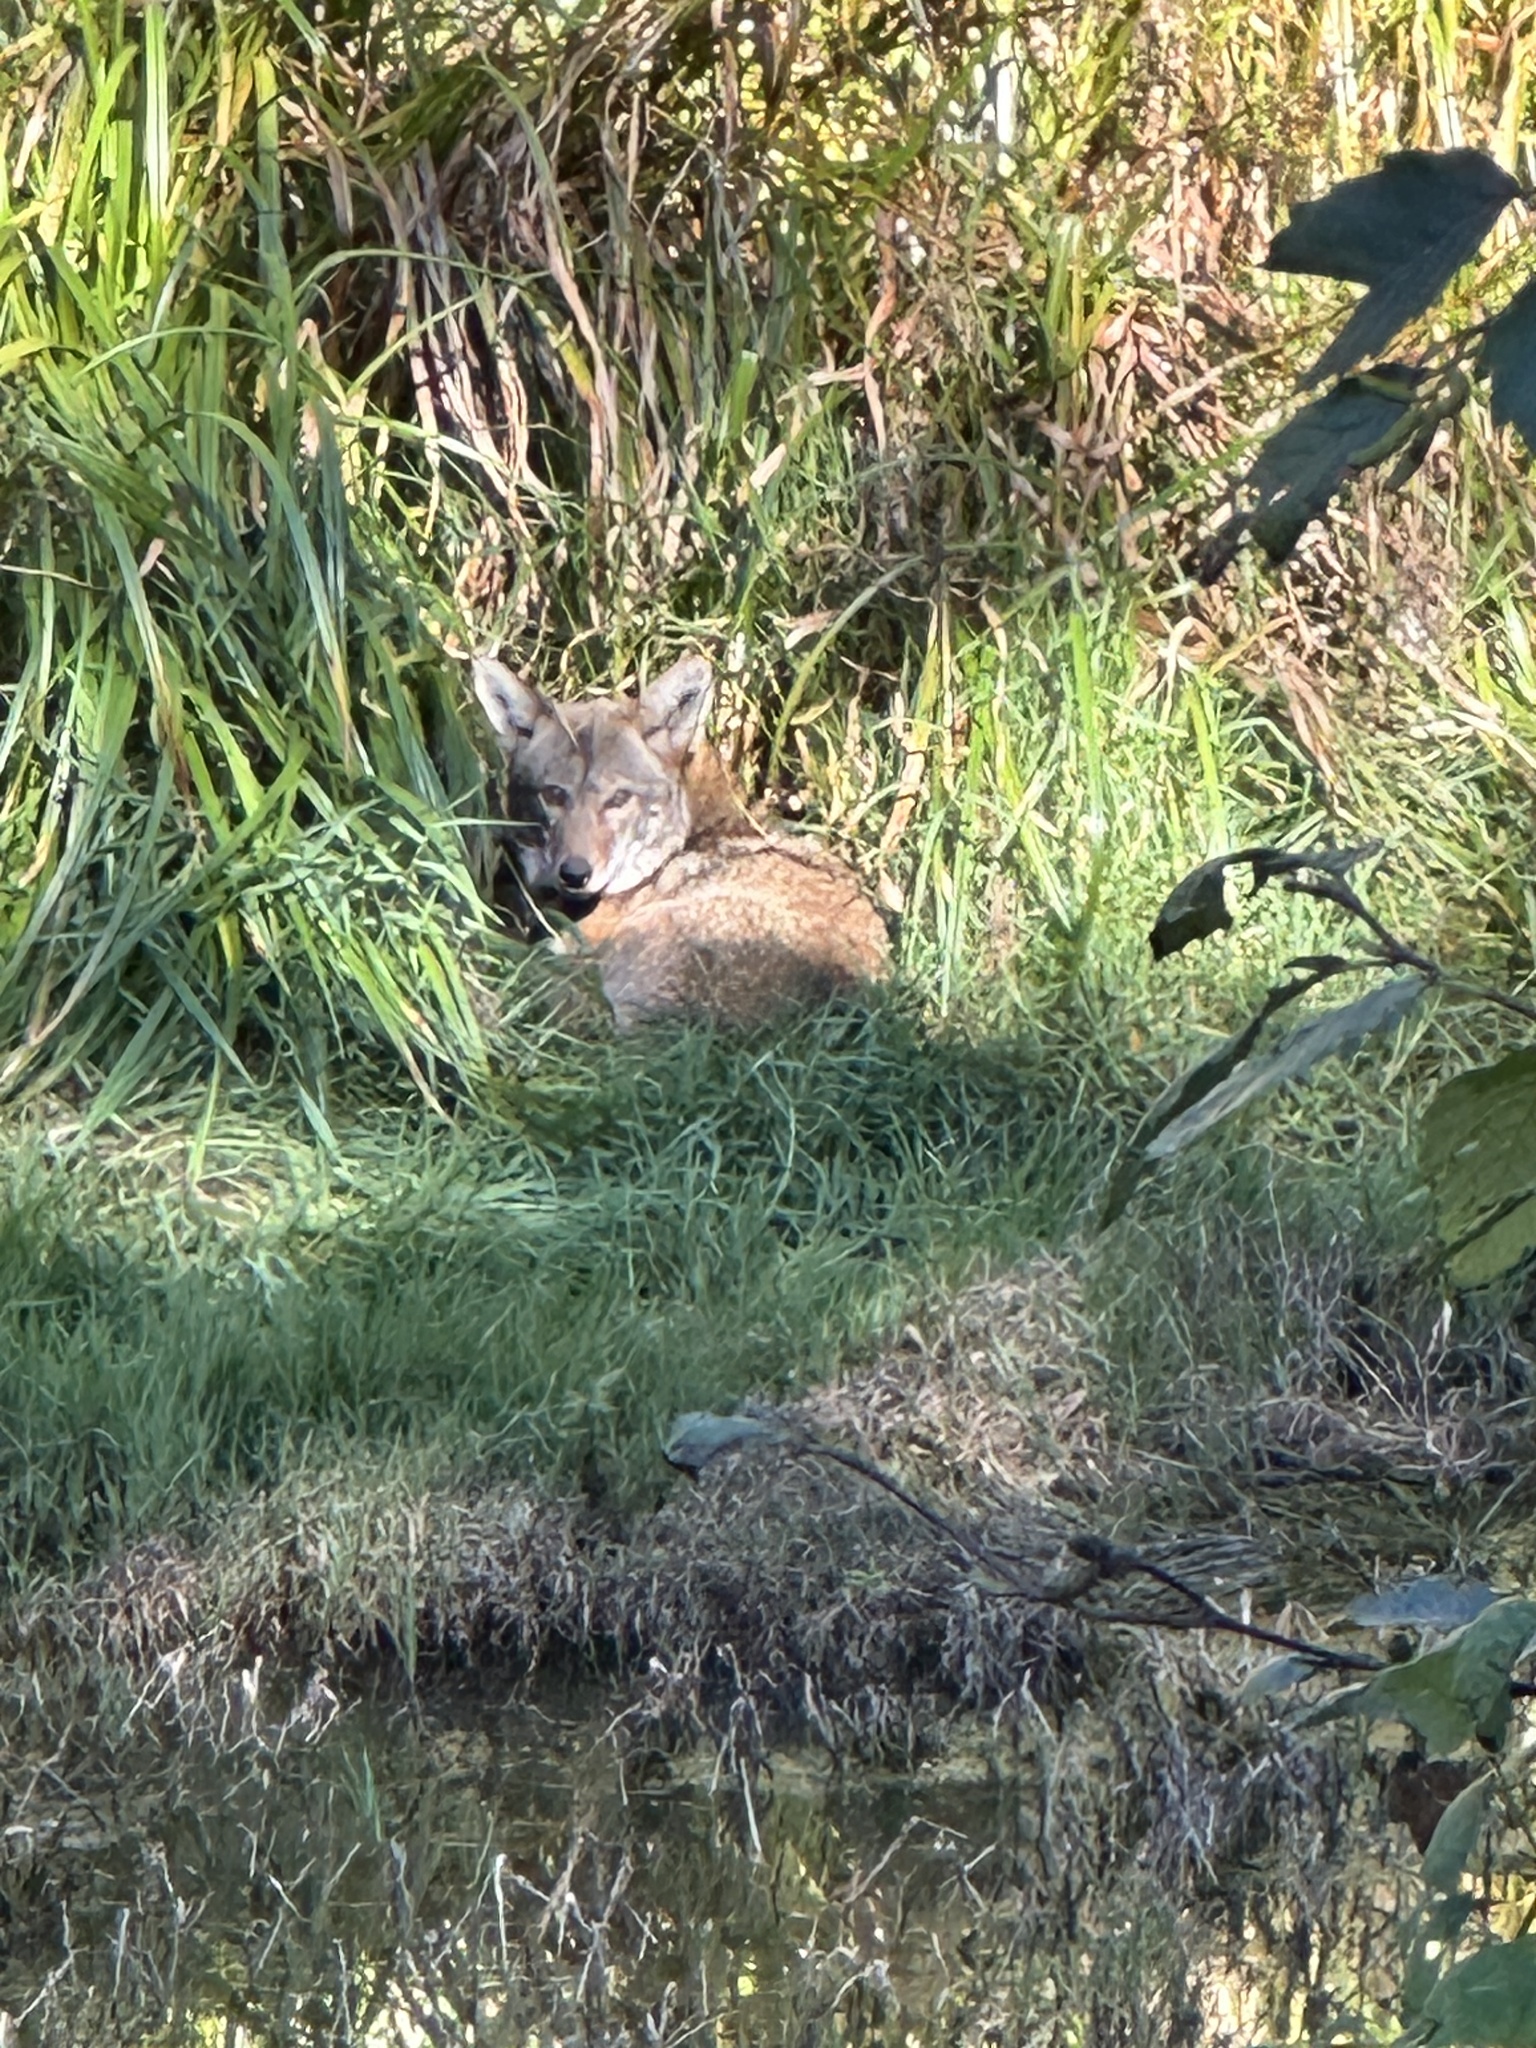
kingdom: Animalia
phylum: Chordata
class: Mammalia
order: Carnivora
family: Canidae
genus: Canis
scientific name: Canis latrans
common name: Coyote
